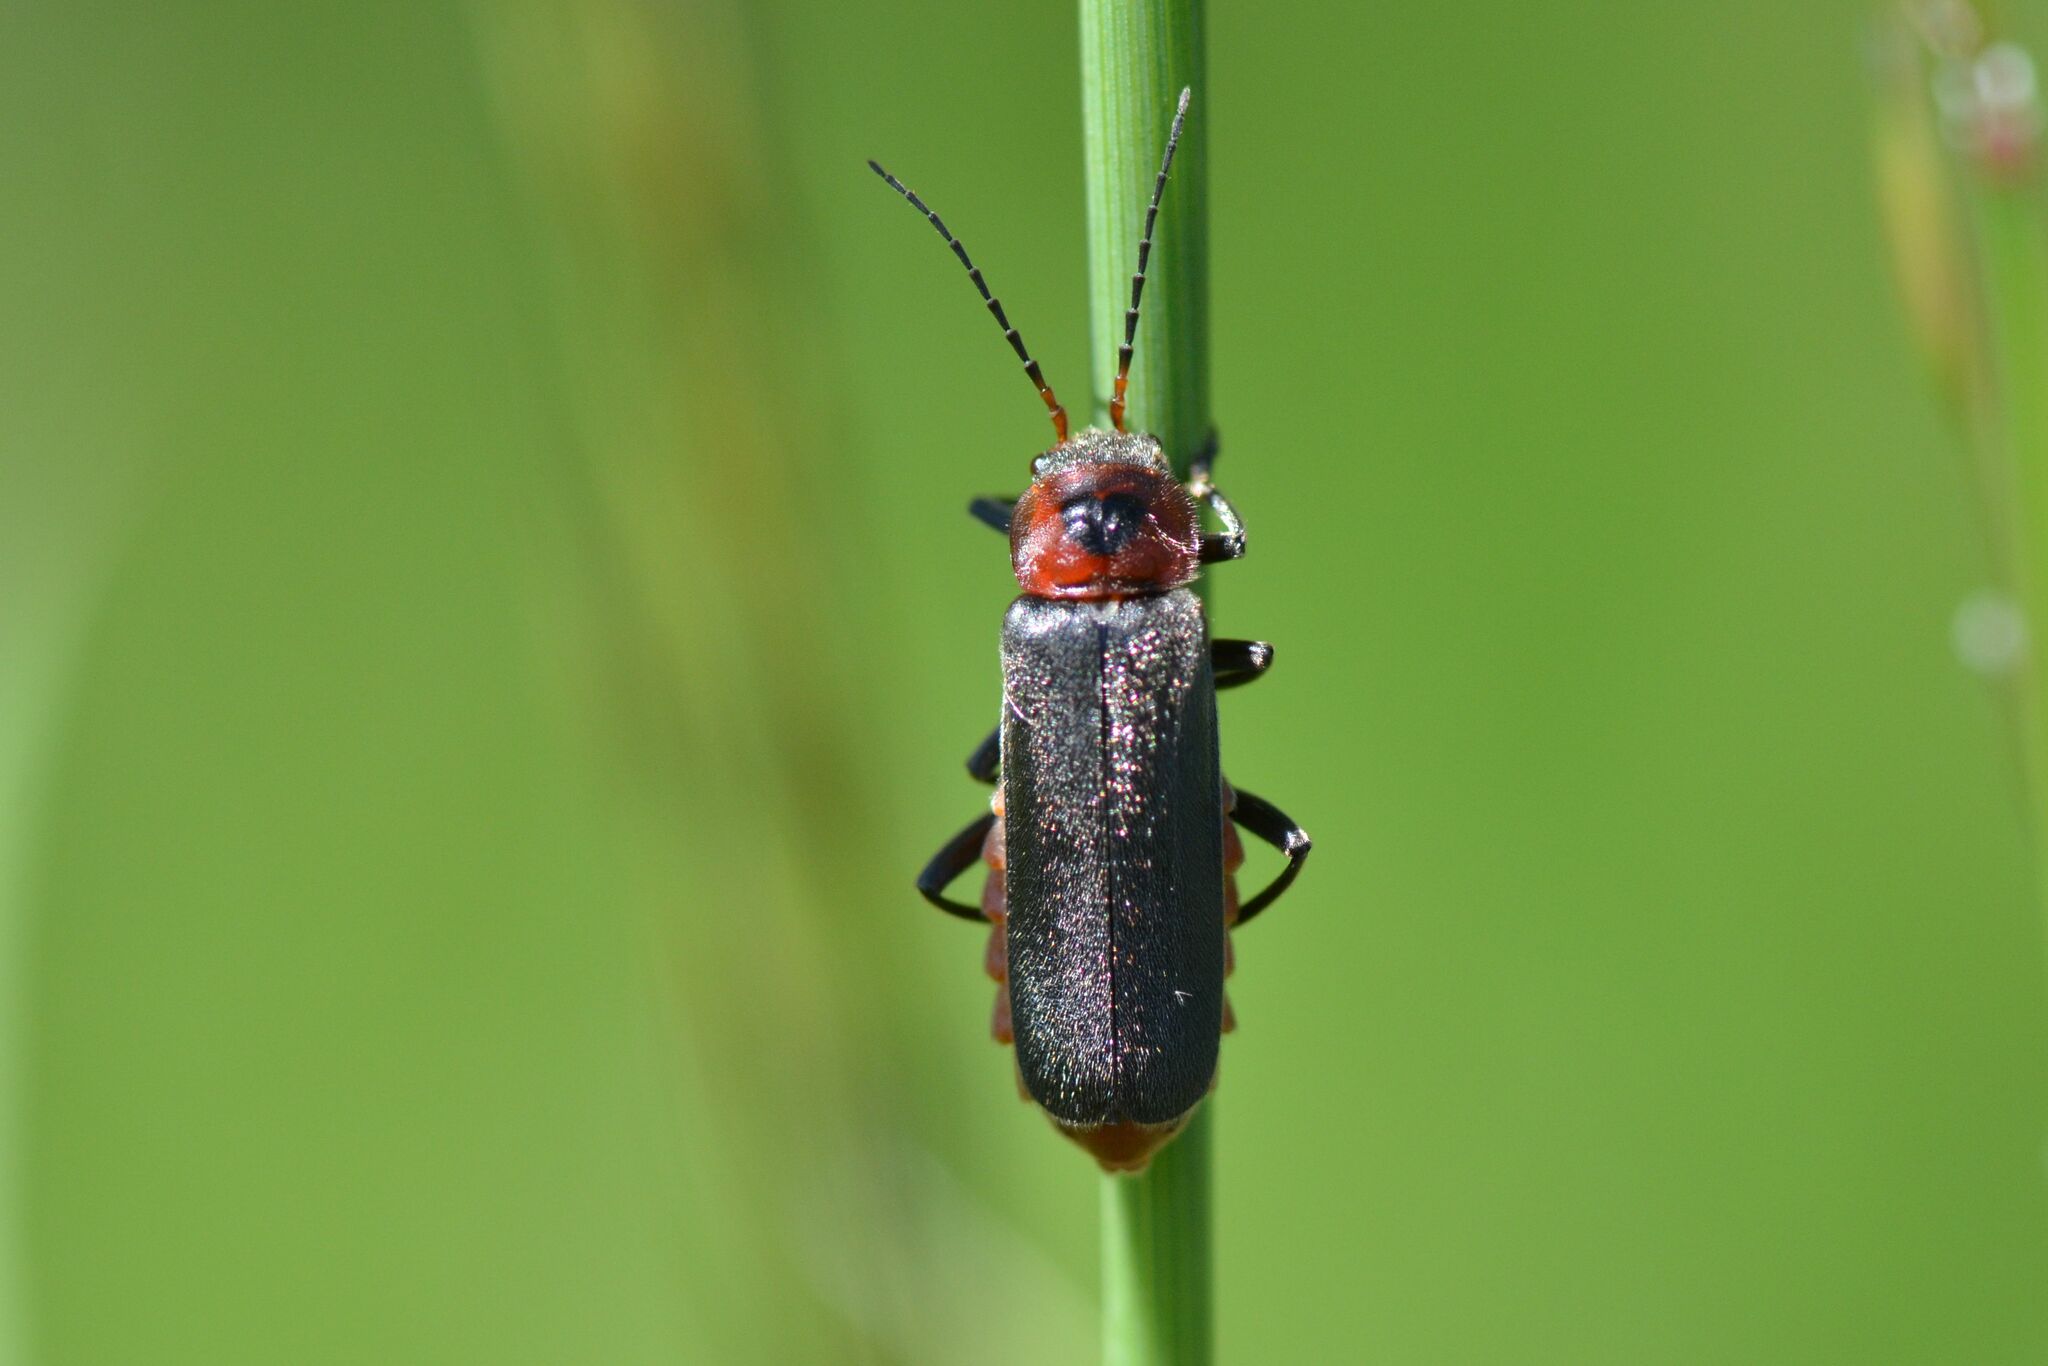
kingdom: Animalia
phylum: Arthropoda
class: Insecta
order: Coleoptera
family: Cantharidae
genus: Cantharis
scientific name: Cantharis rustica
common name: Soldier beetle
